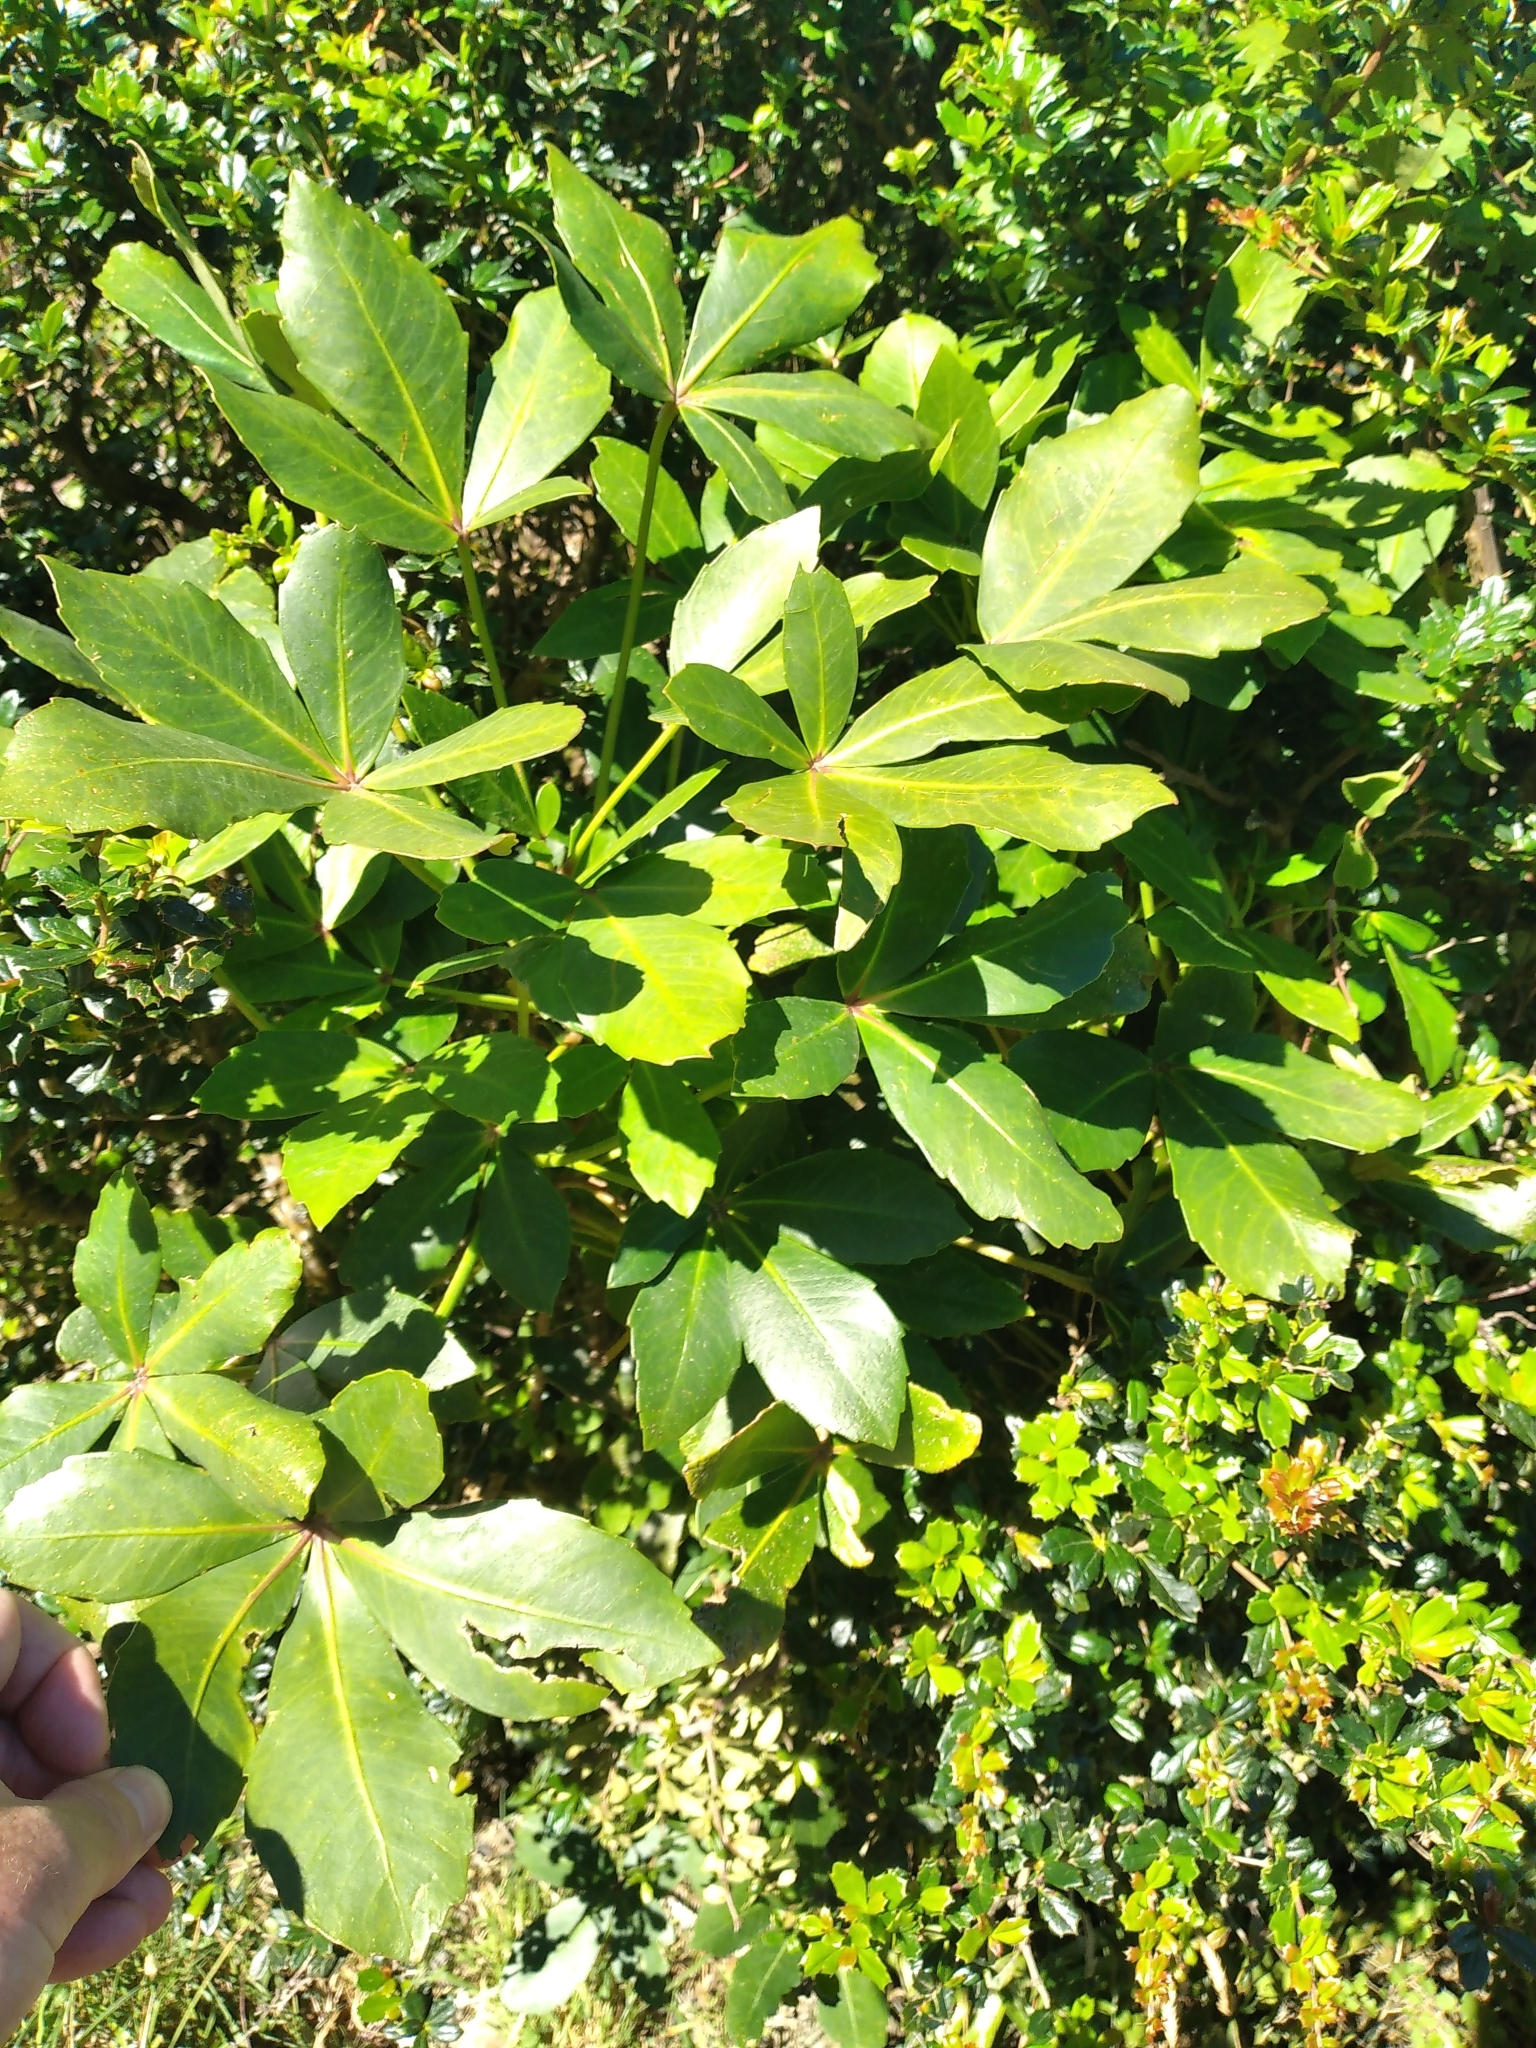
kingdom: Plantae
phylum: Tracheophyta
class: Magnoliopsida
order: Apiales
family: Araliaceae
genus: Pseudopanax
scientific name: Pseudopanax lessonii
